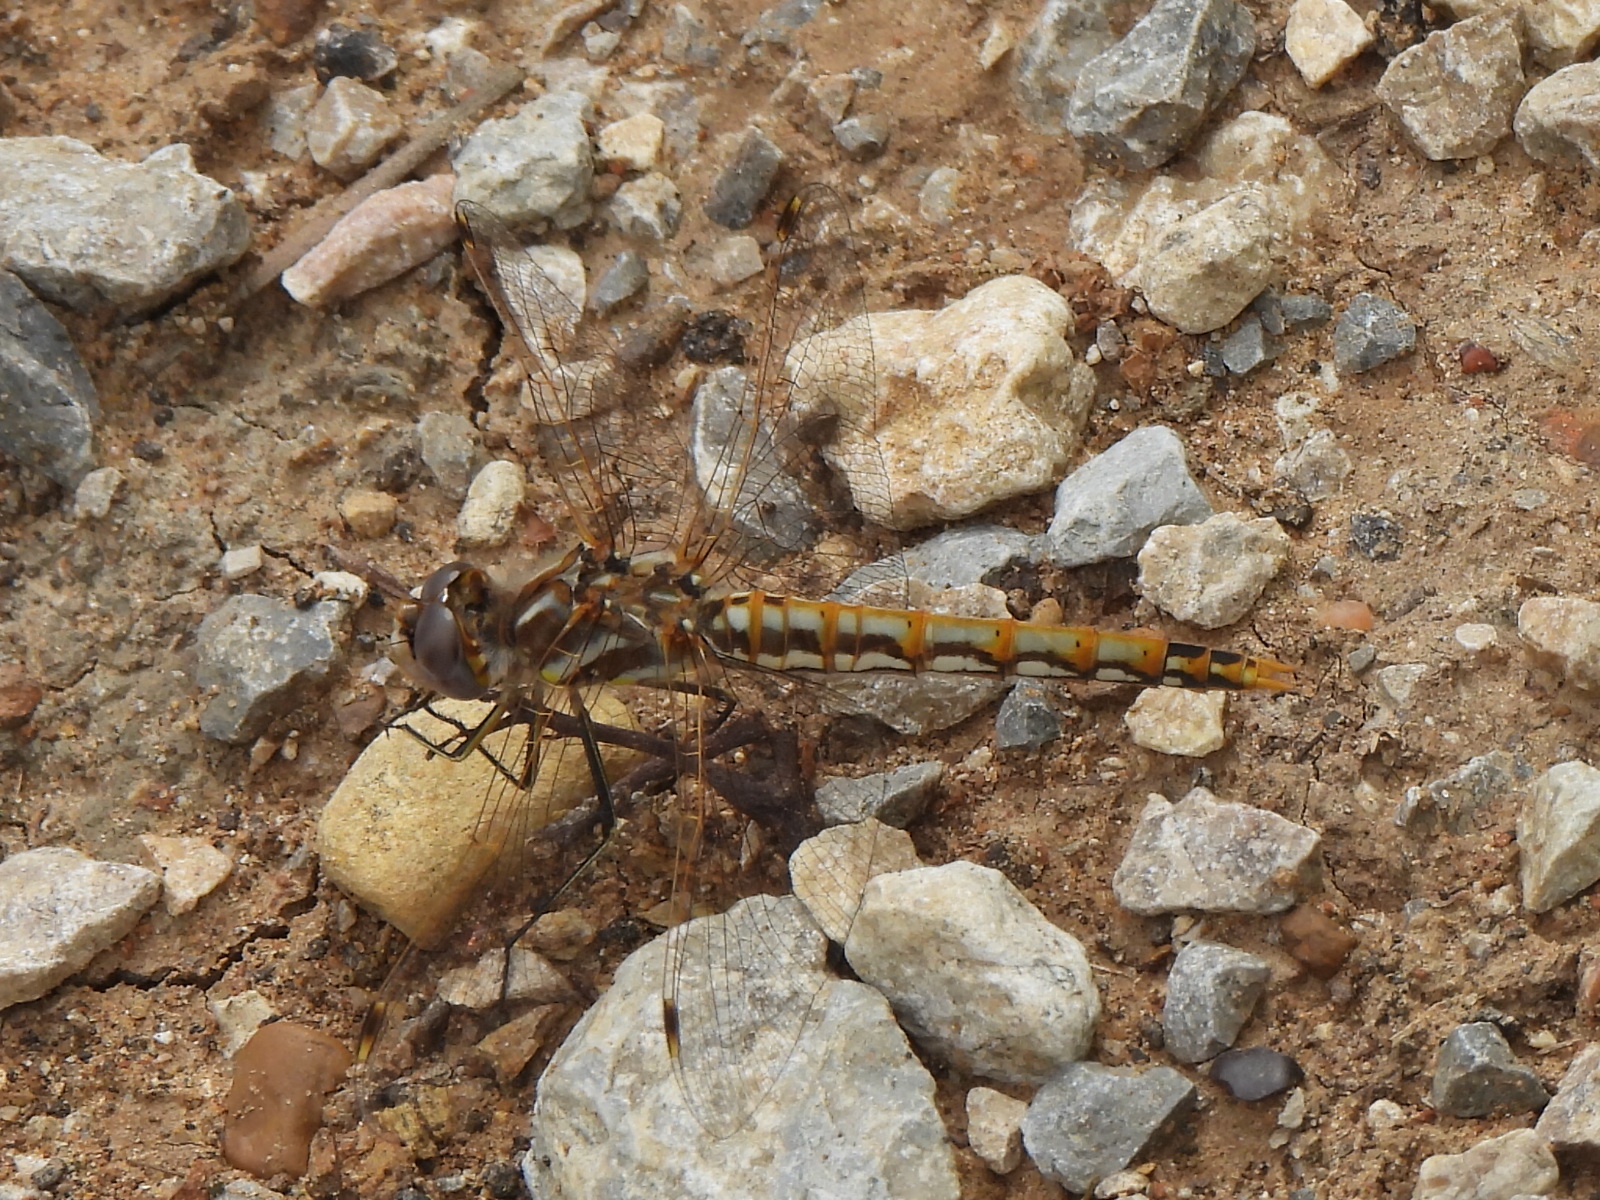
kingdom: Animalia
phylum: Arthropoda
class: Insecta
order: Odonata
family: Libellulidae
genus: Sympetrum
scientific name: Sympetrum corruptum
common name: Variegated meadowhawk
